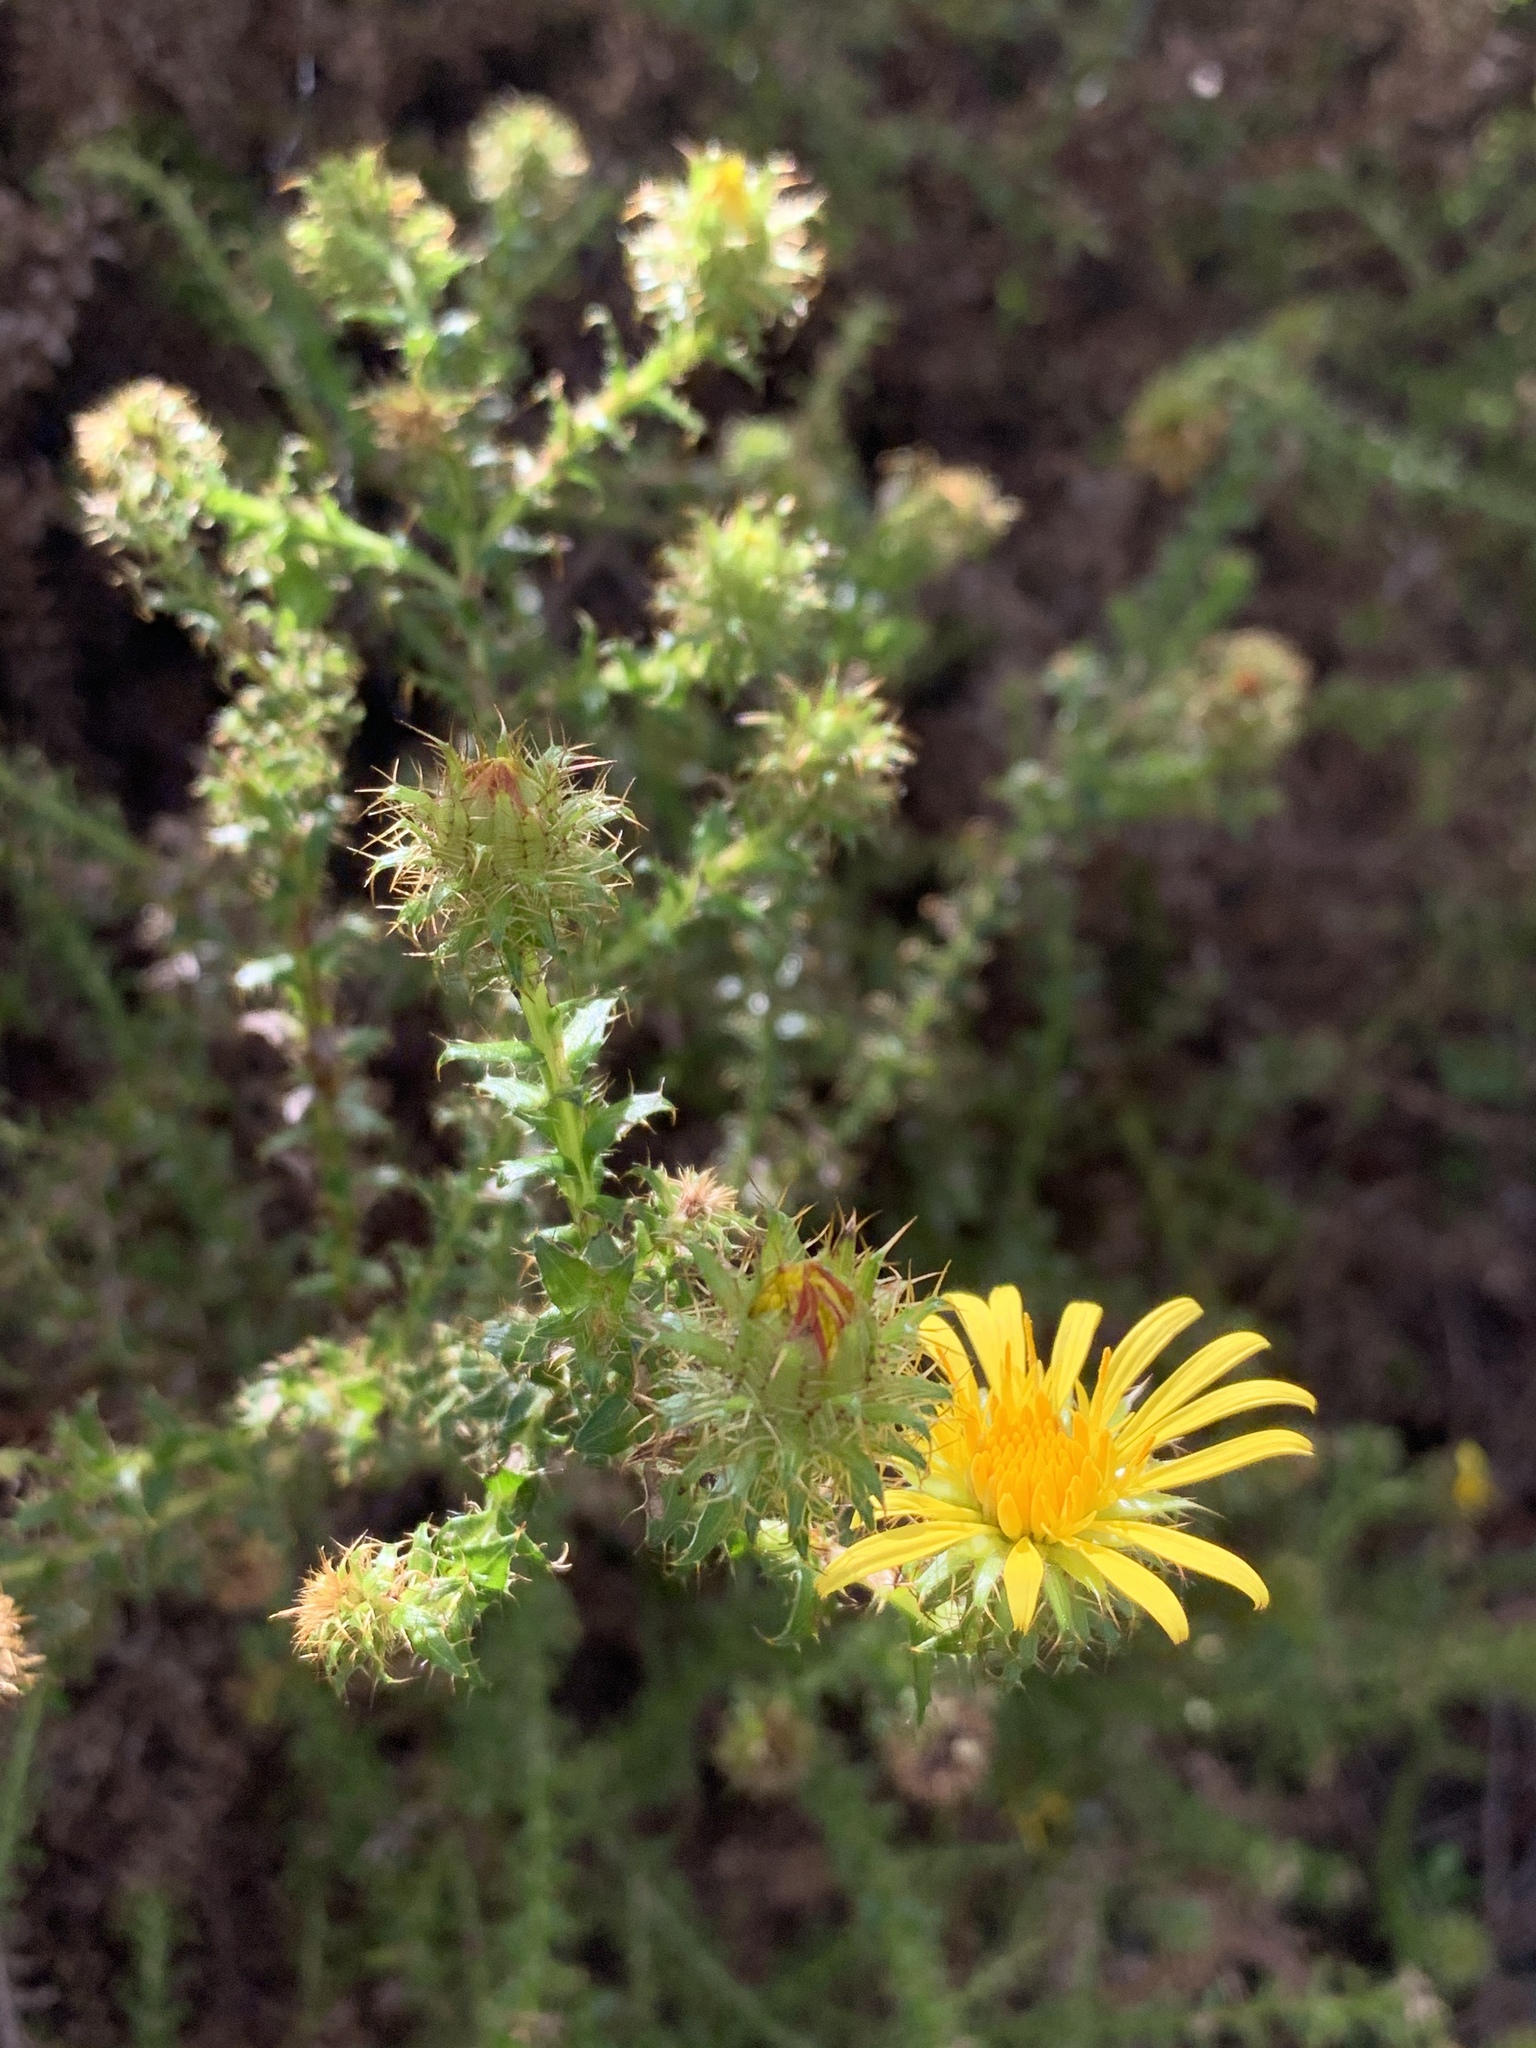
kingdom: Plantae
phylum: Tracheophyta
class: Magnoliopsida
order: Asterales
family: Asteraceae
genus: Cullumia
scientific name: Cullumia setosa
